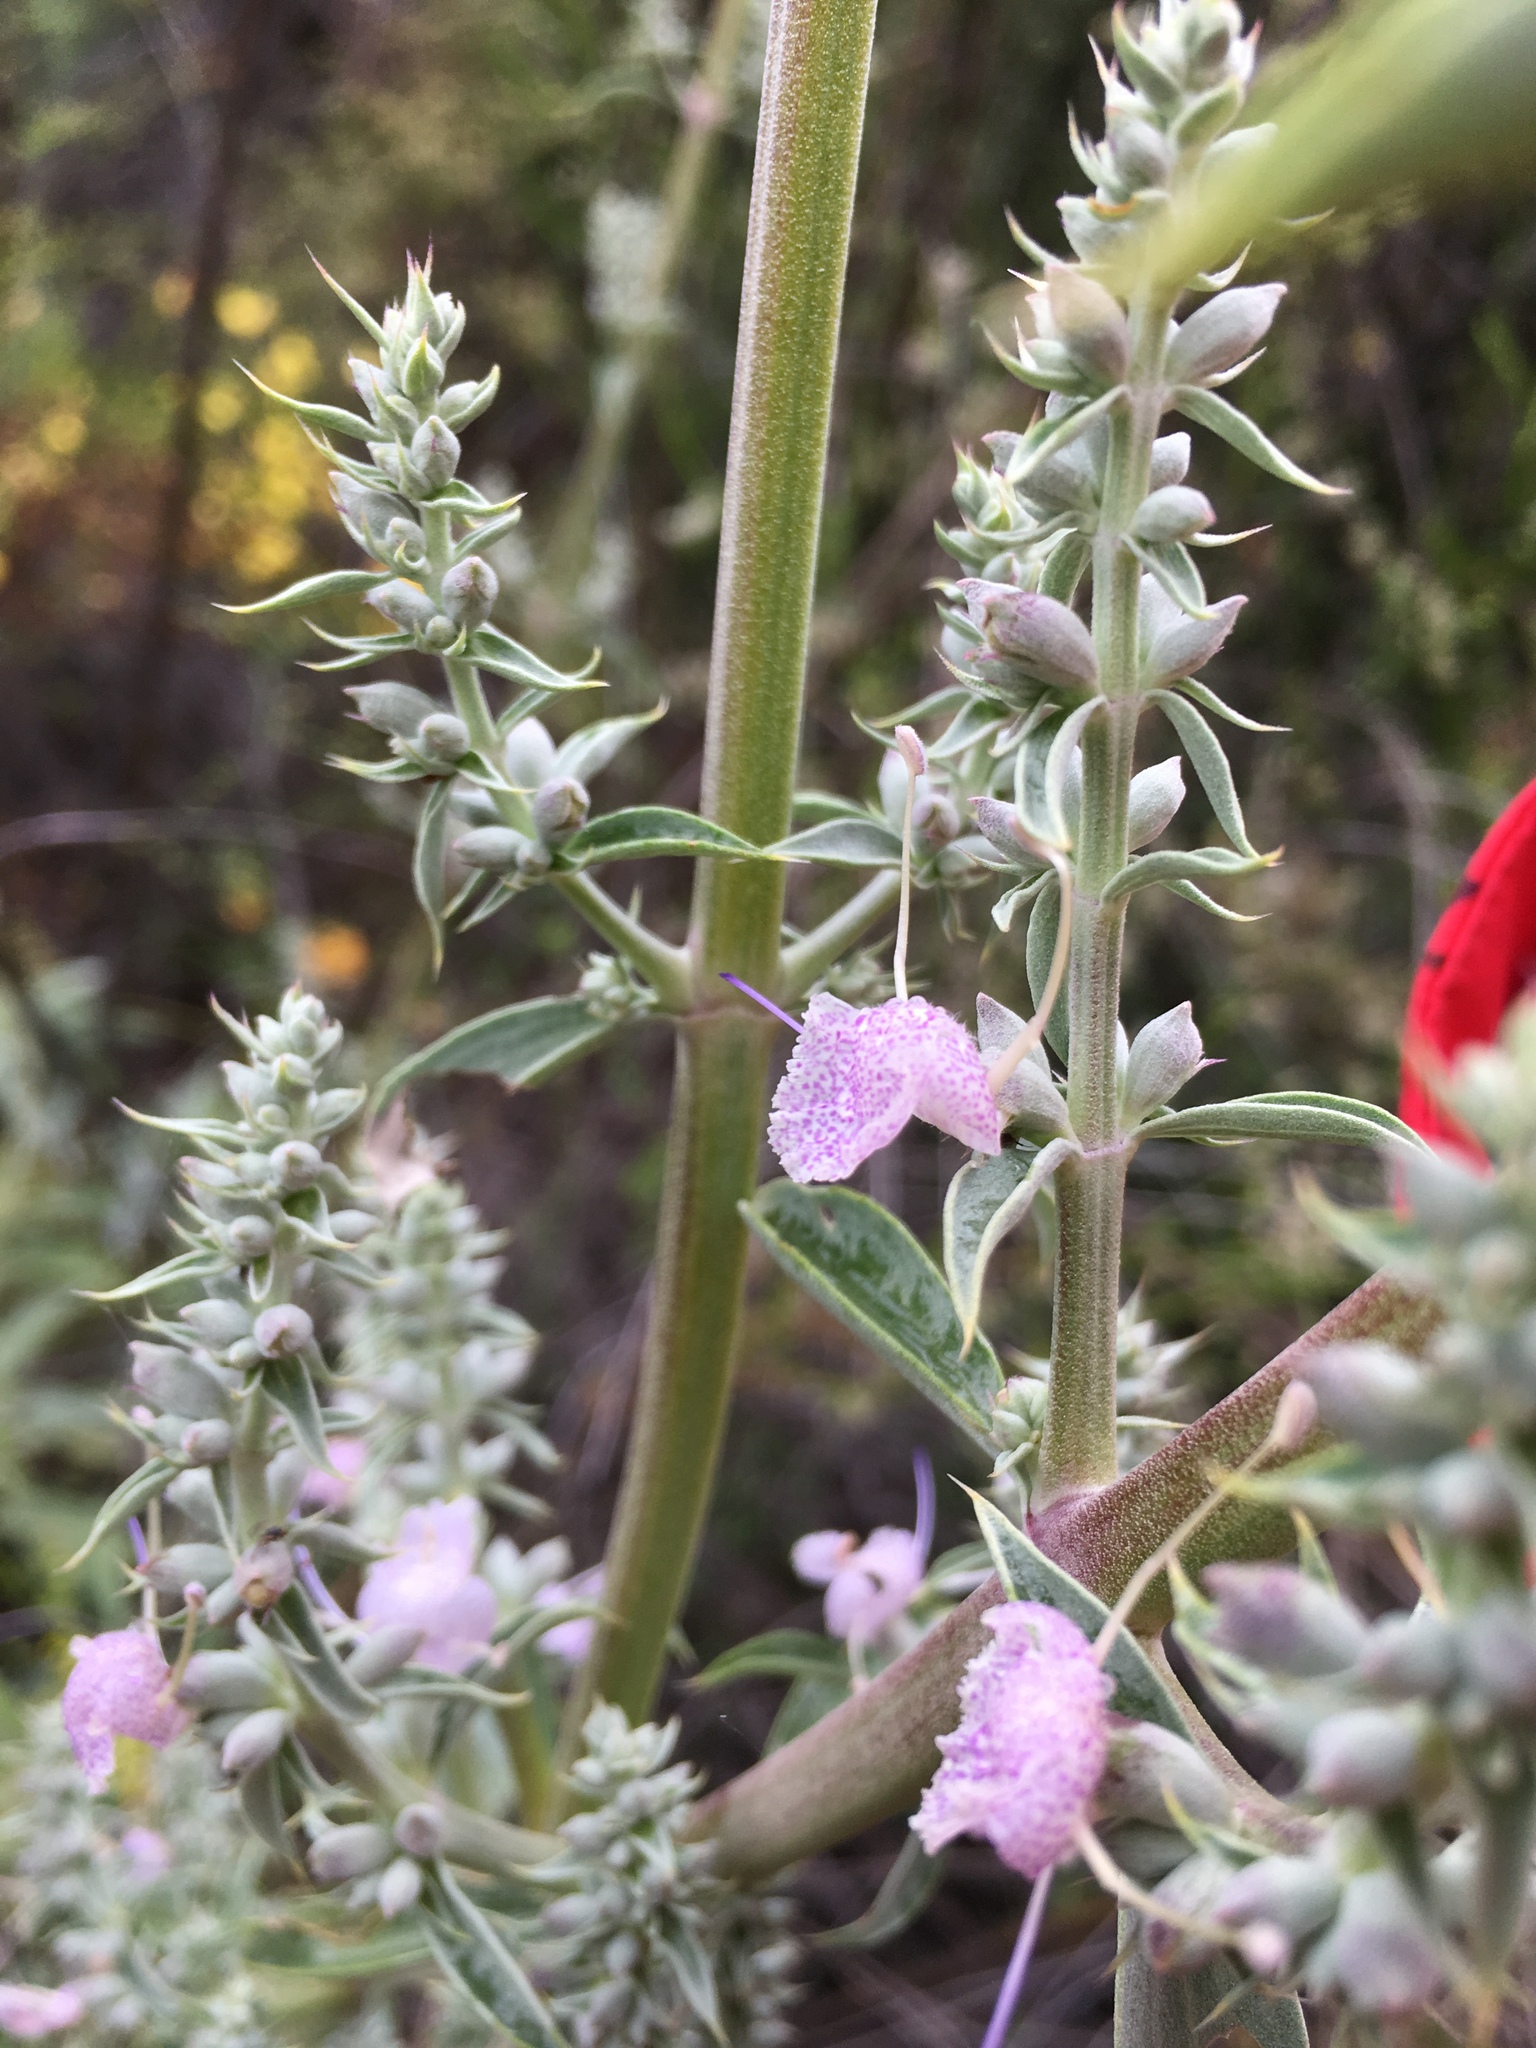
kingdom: Plantae
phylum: Tracheophyta
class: Magnoliopsida
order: Lamiales
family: Lamiaceae
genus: Salvia
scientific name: Salvia apiana
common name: White sage
